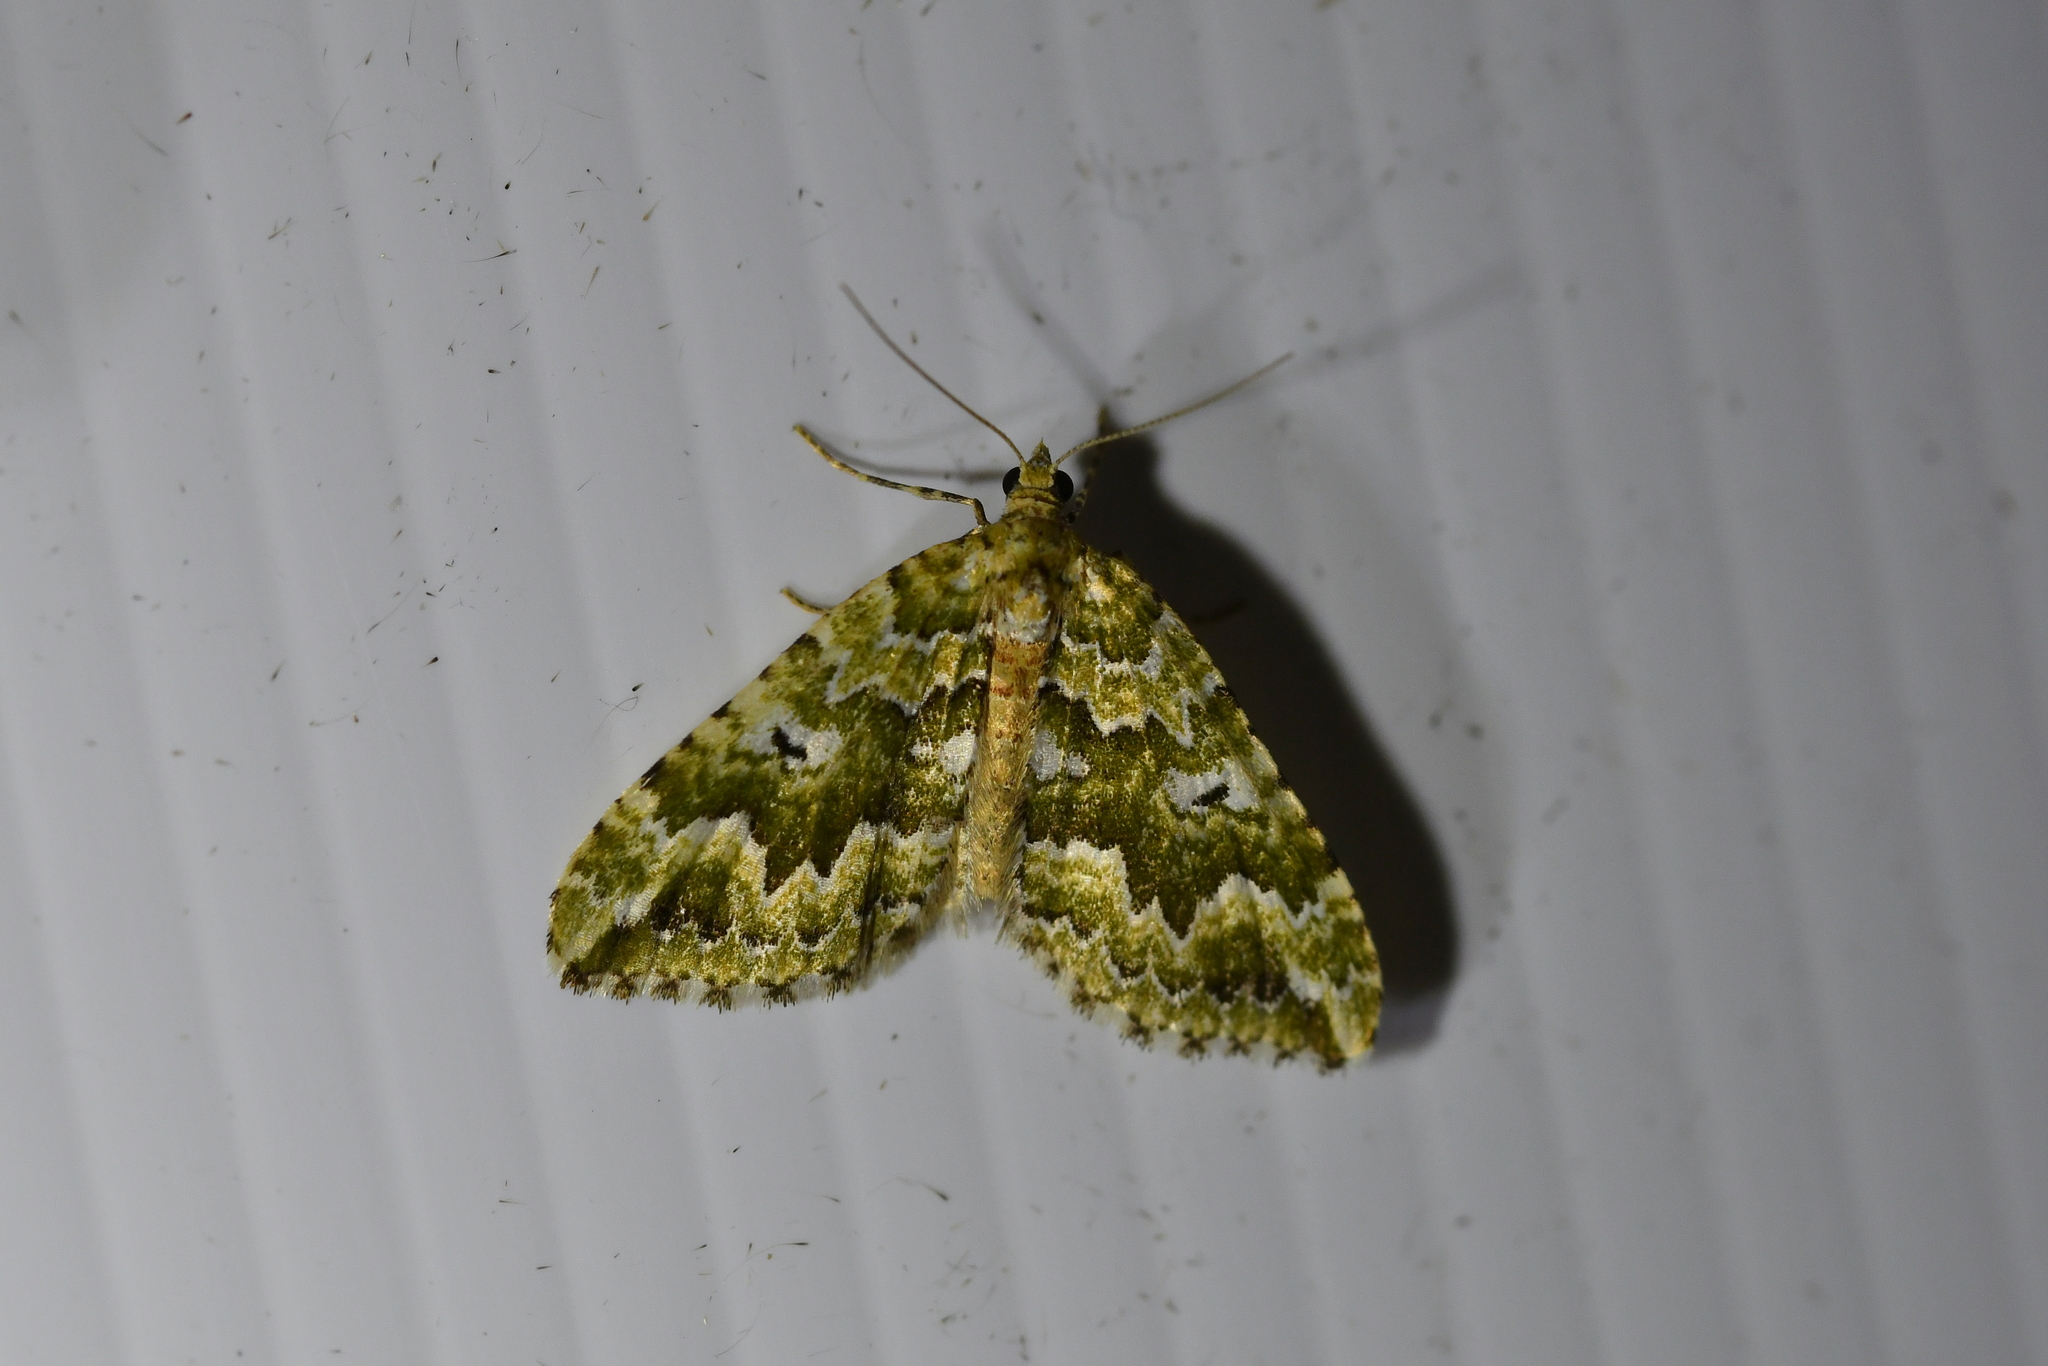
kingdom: Animalia
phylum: Arthropoda
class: Insecta
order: Lepidoptera
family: Geometridae
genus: Asaphodes
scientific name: Asaphodes beata
